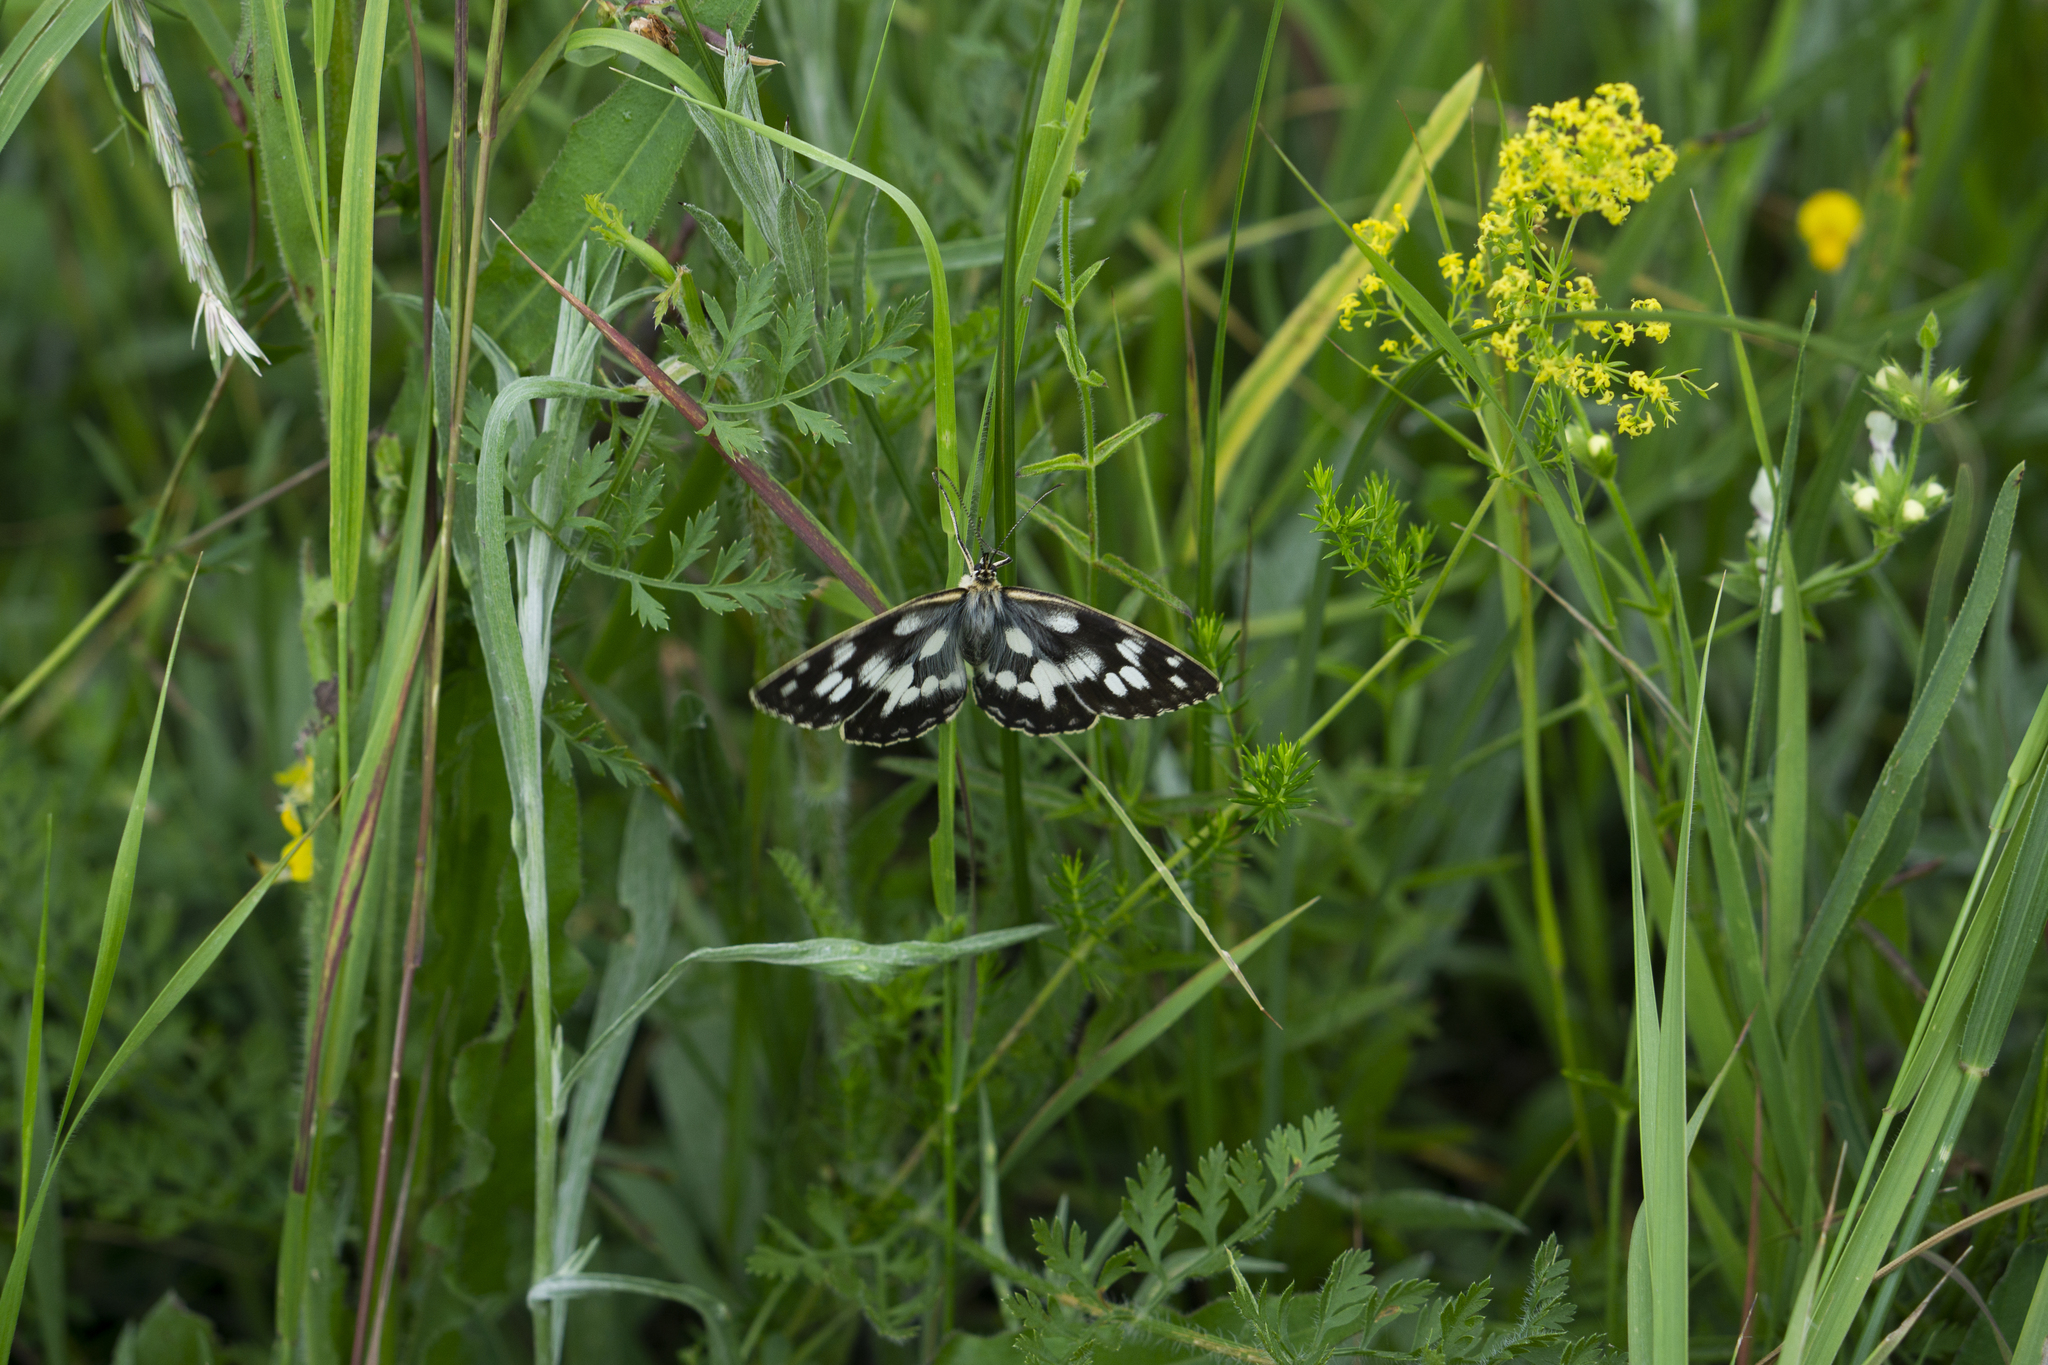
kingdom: Animalia
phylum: Arthropoda
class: Insecta
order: Lepidoptera
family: Nymphalidae
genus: Melanargia
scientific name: Melanargia galathea
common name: Marbled white
